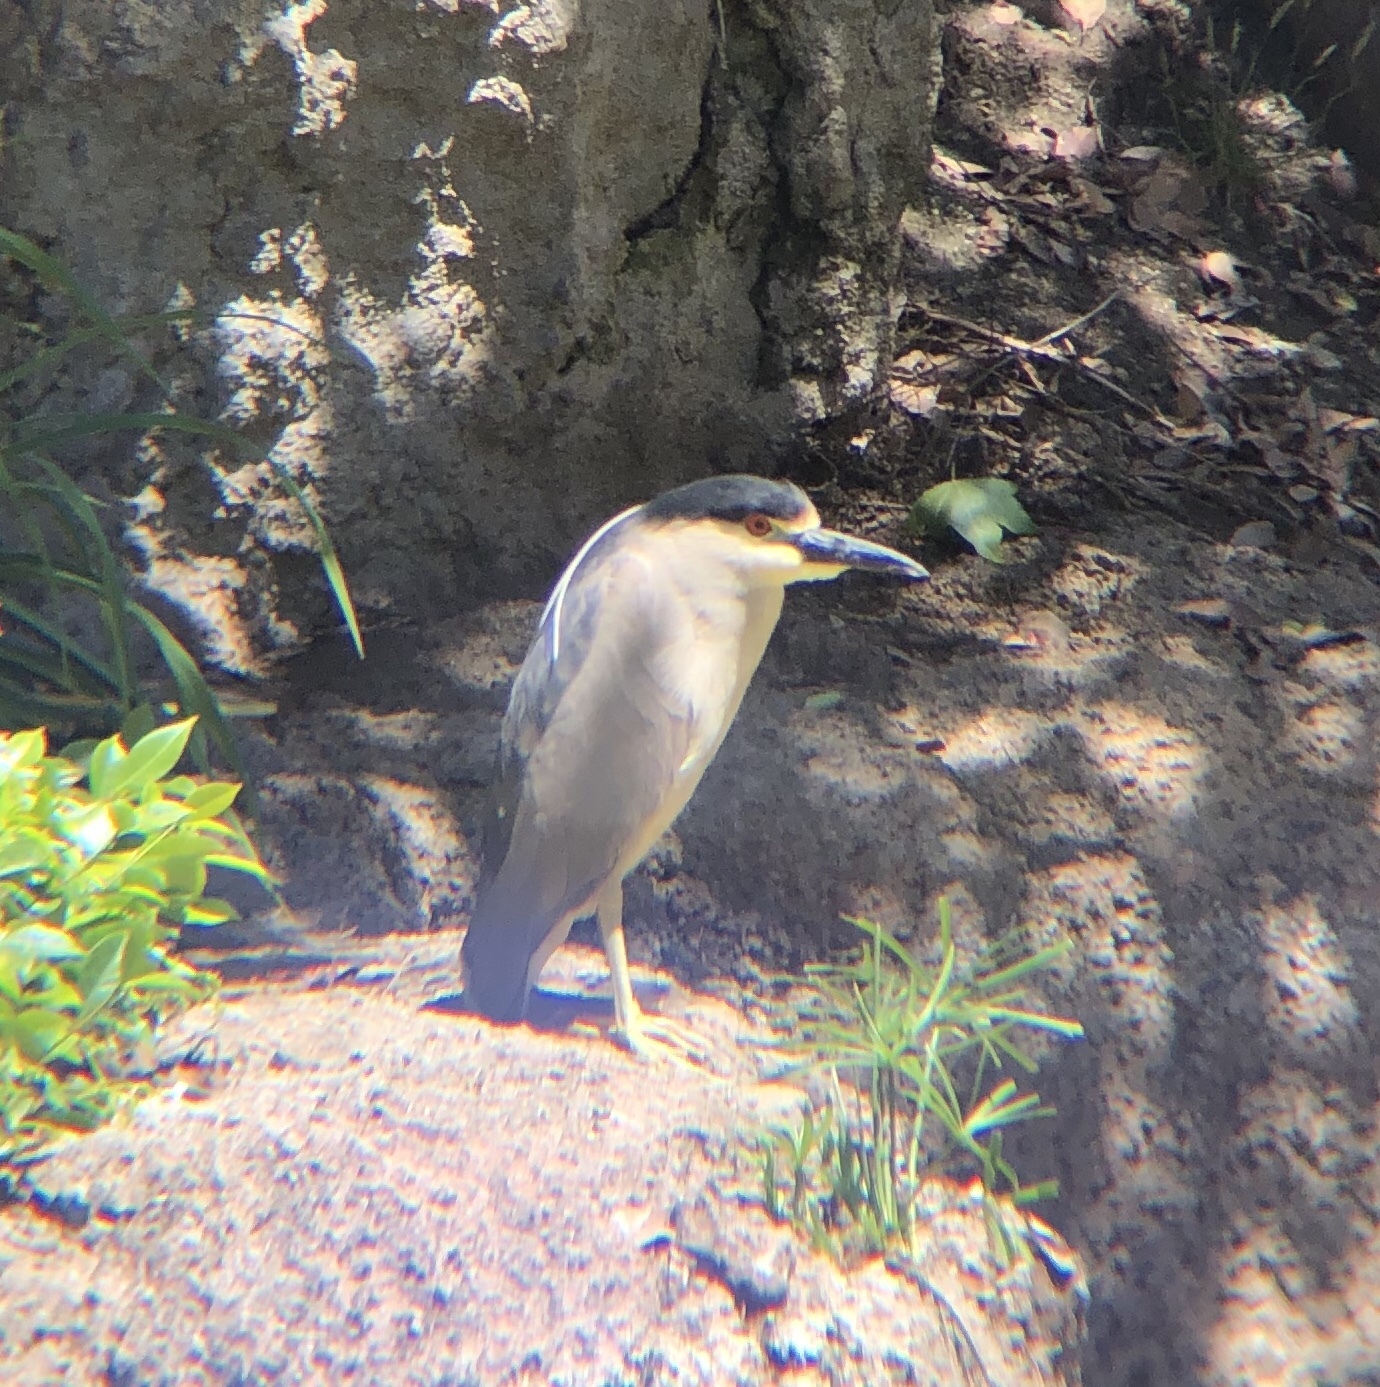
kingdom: Animalia
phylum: Chordata
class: Aves
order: Pelecaniformes
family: Ardeidae
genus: Nycticorax
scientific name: Nycticorax nycticorax
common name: Black-crowned night heron
